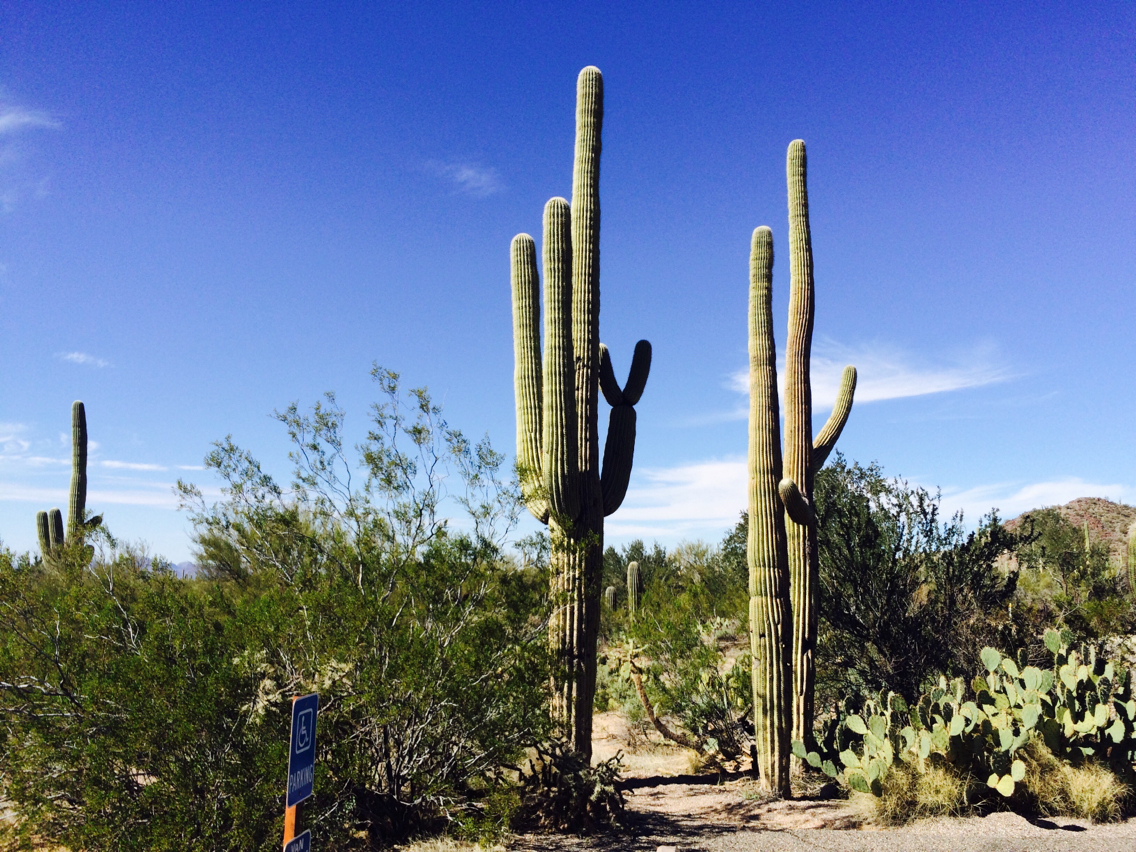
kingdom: Plantae
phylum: Tracheophyta
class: Magnoliopsida
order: Caryophyllales
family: Cactaceae
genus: Carnegiea
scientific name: Carnegiea gigantea
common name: Saguaro
